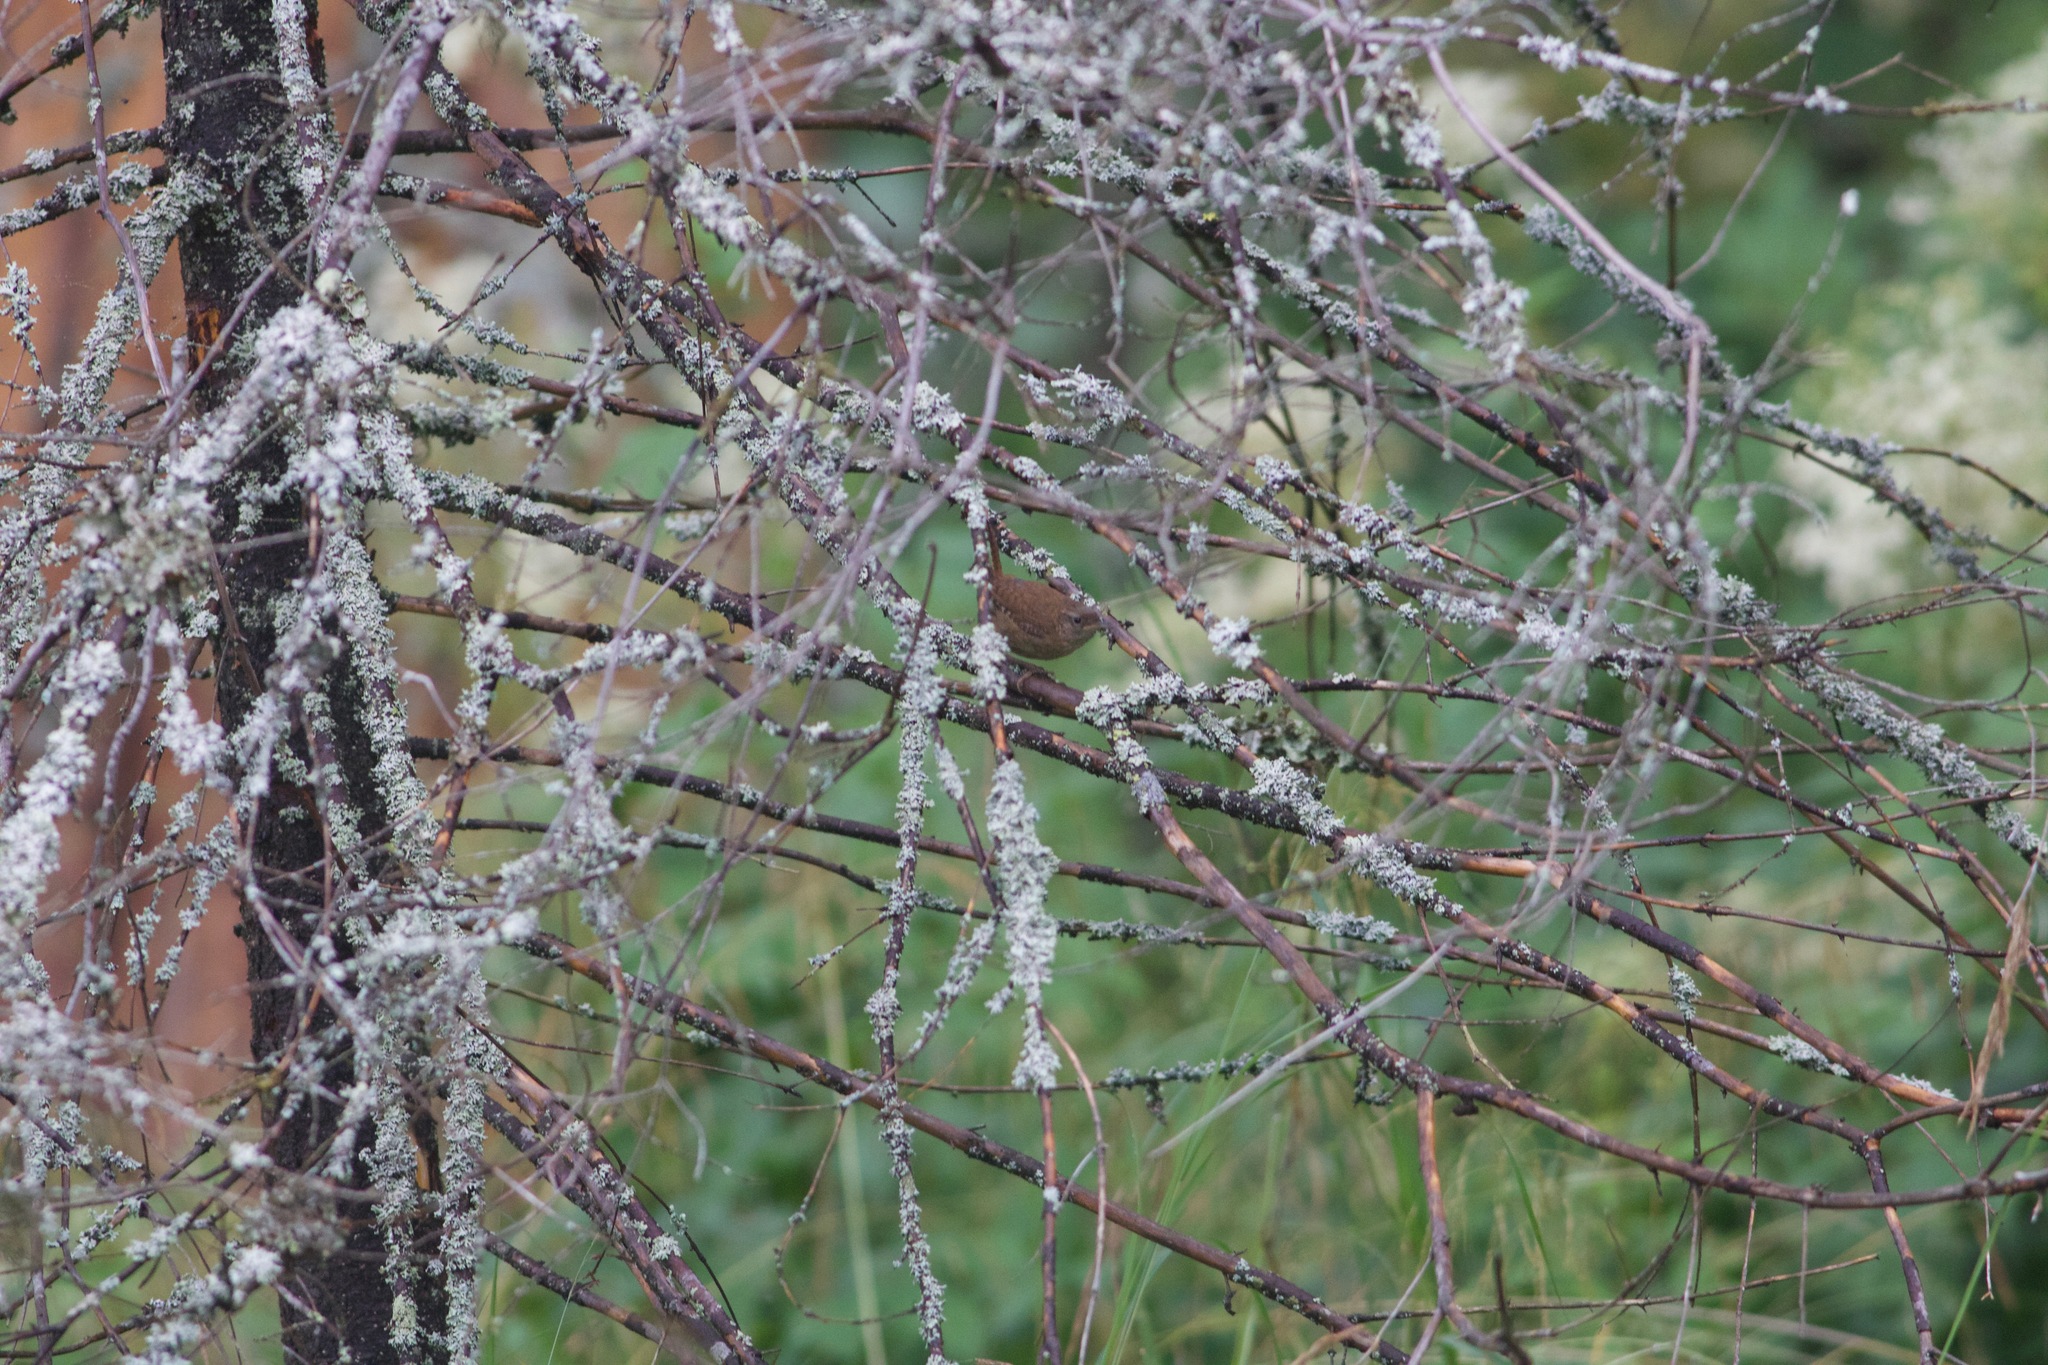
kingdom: Animalia
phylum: Chordata
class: Aves
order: Passeriformes
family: Troglodytidae
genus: Troglodytes
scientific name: Troglodytes troglodytes
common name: Eurasian wren
